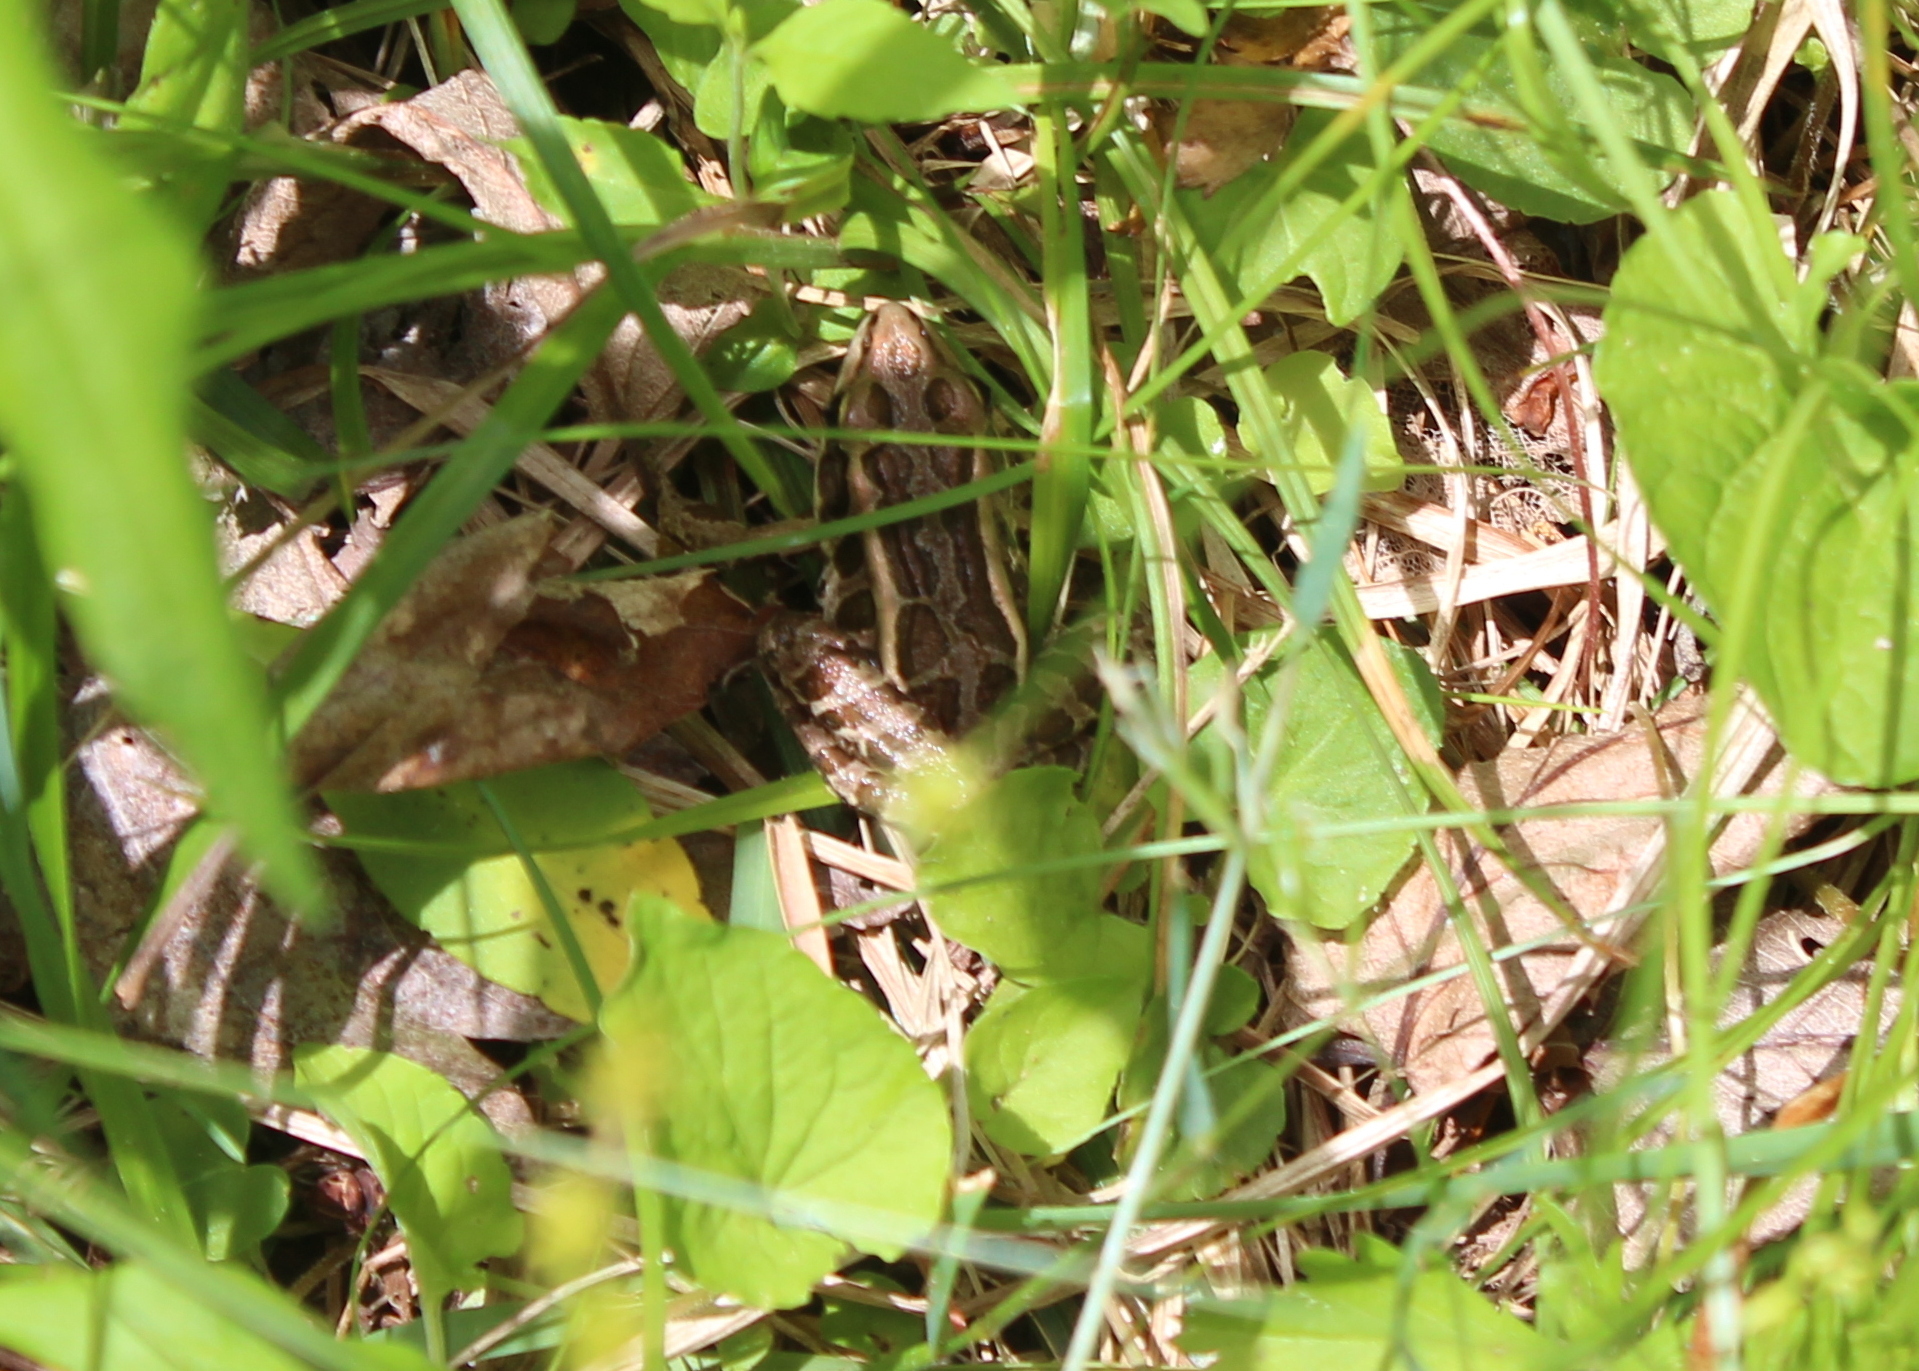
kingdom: Animalia
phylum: Chordata
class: Amphibia
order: Anura
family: Ranidae
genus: Lithobates
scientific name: Lithobates palustris
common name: Pickerel frog
